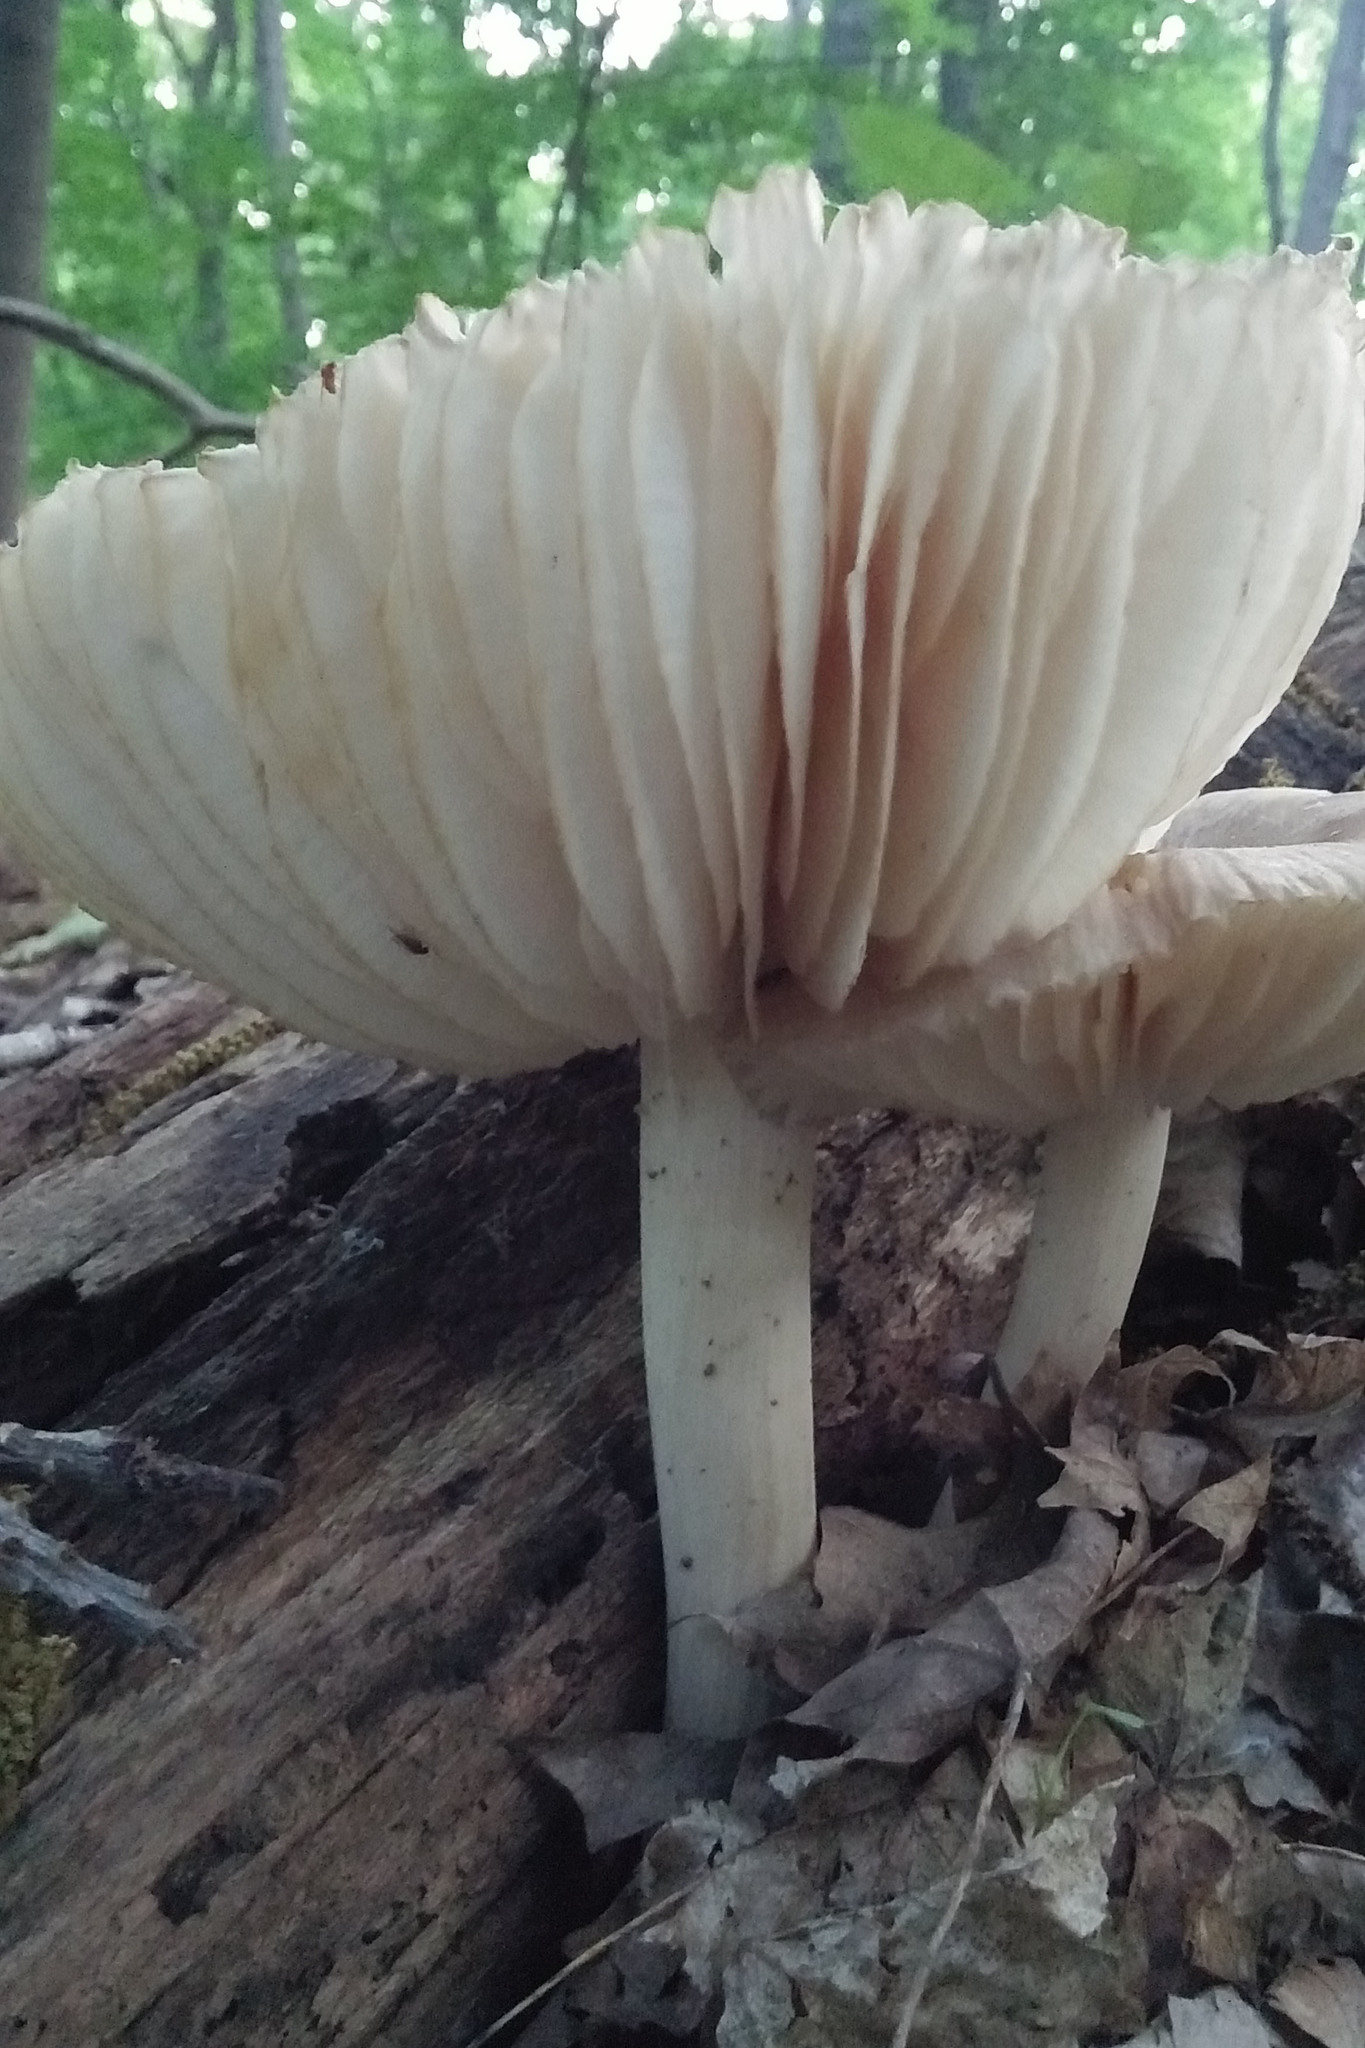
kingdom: Fungi
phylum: Basidiomycota
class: Agaricomycetes
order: Agaricales
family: Tricholomataceae
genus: Megacollybia
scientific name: Megacollybia rodmanii
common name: Eastern american platterful mushroom
